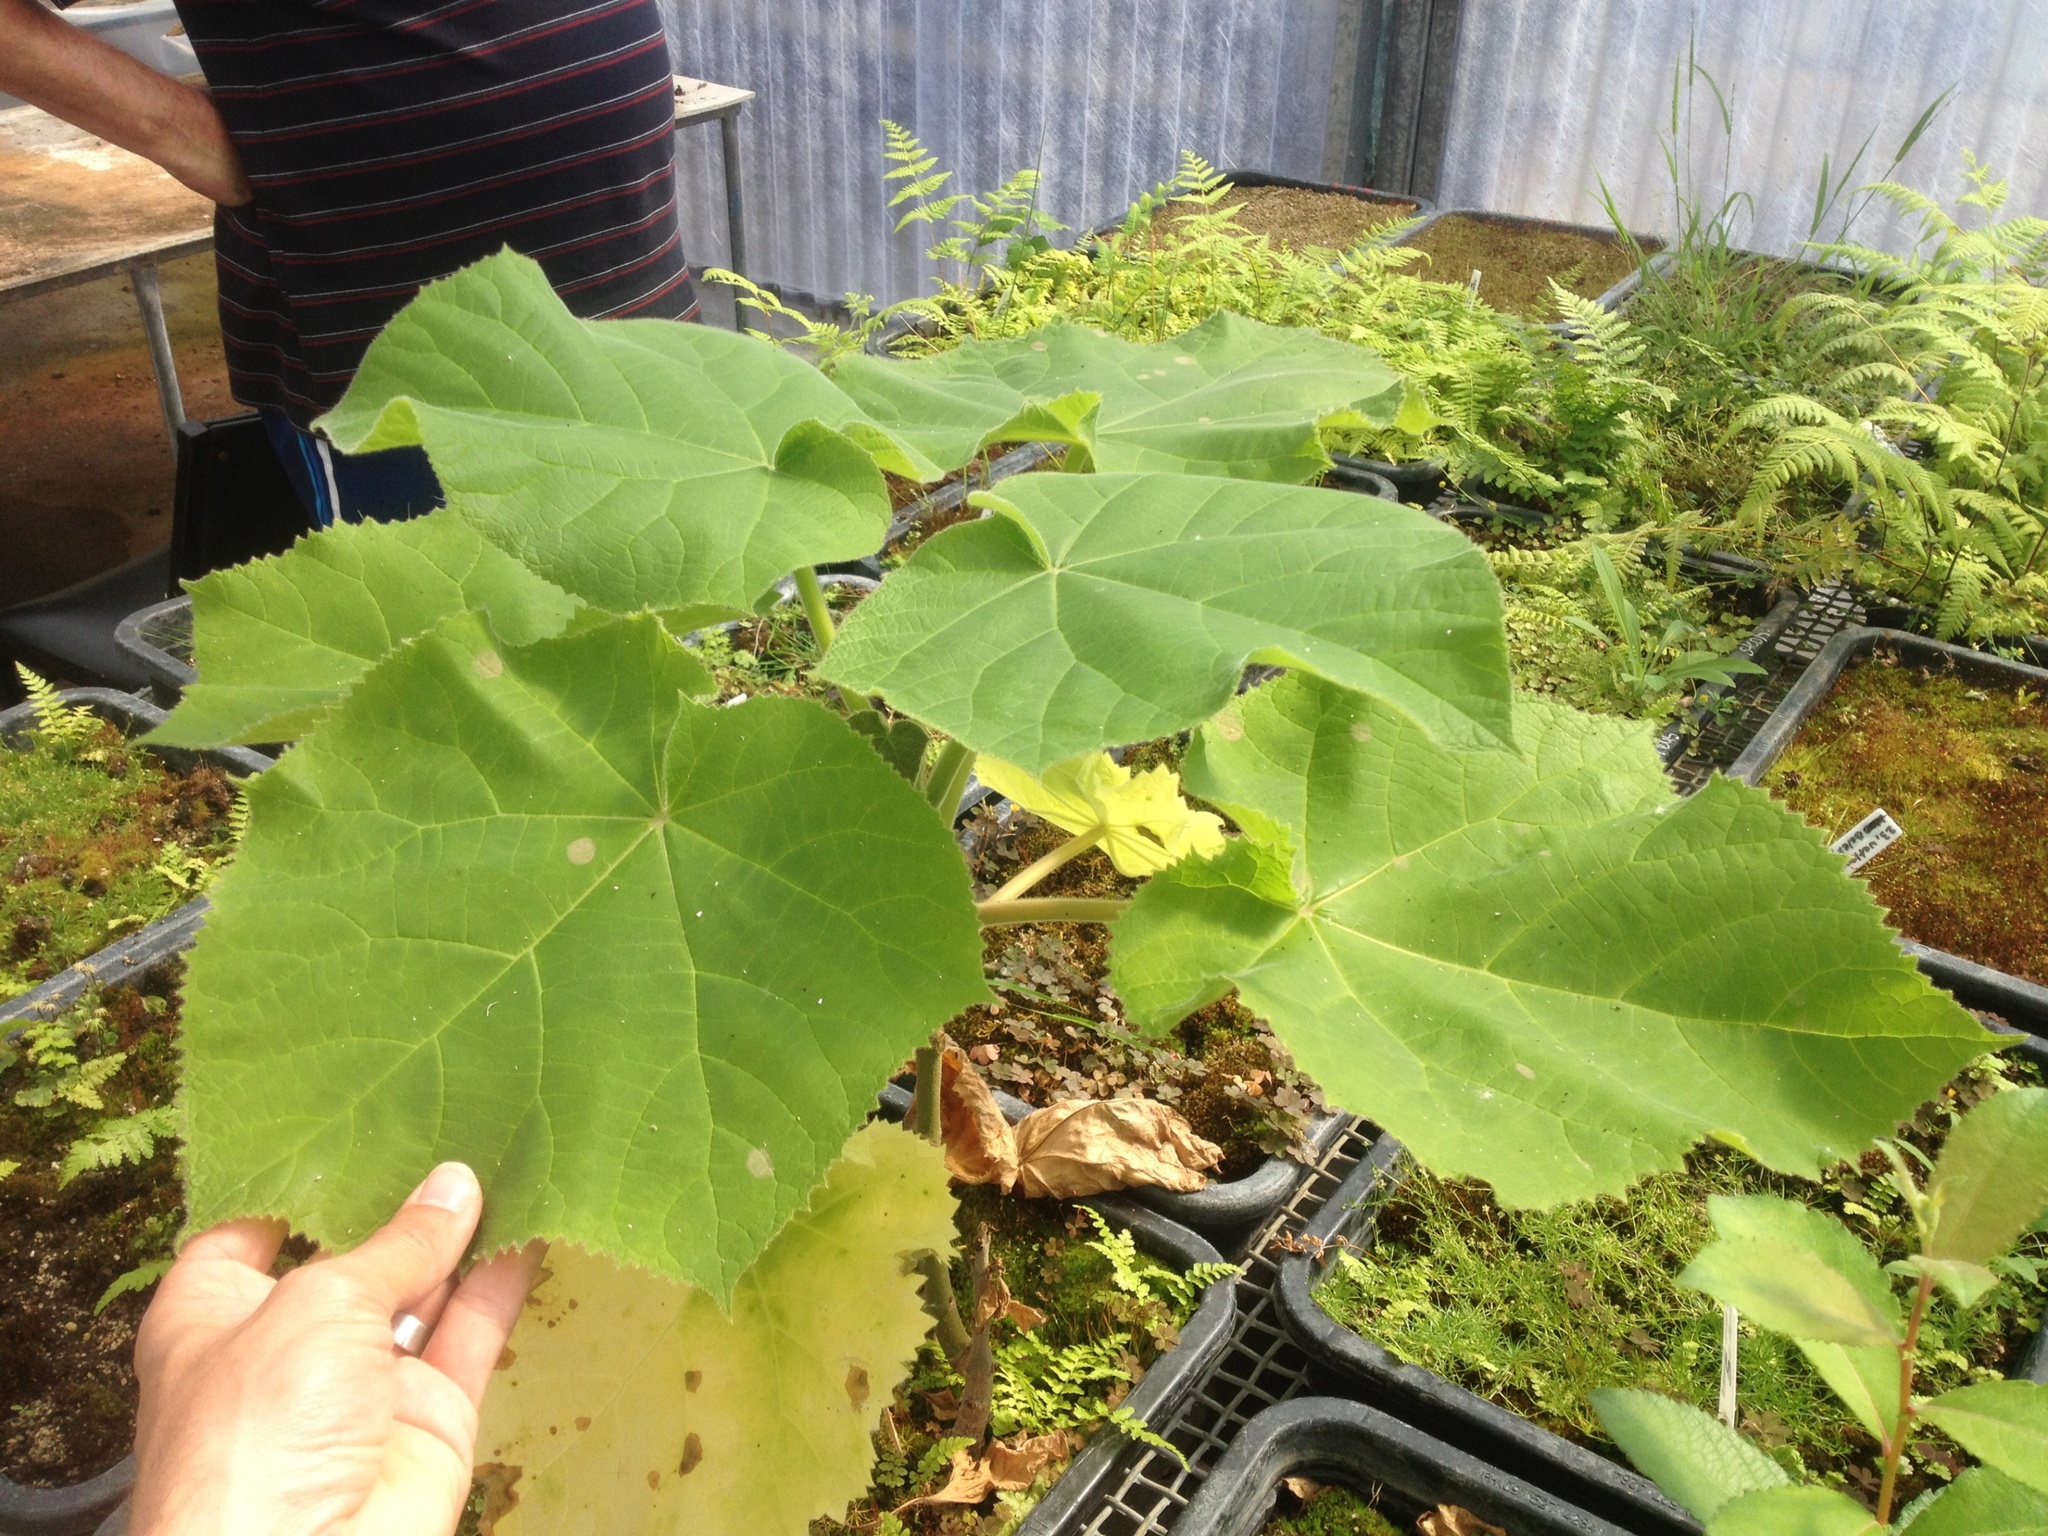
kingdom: Plantae
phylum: Tracheophyta
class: Magnoliopsida
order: Lamiales
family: Paulowniaceae
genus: Paulownia
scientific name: Paulownia tomentosa
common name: Foxglove-tree
